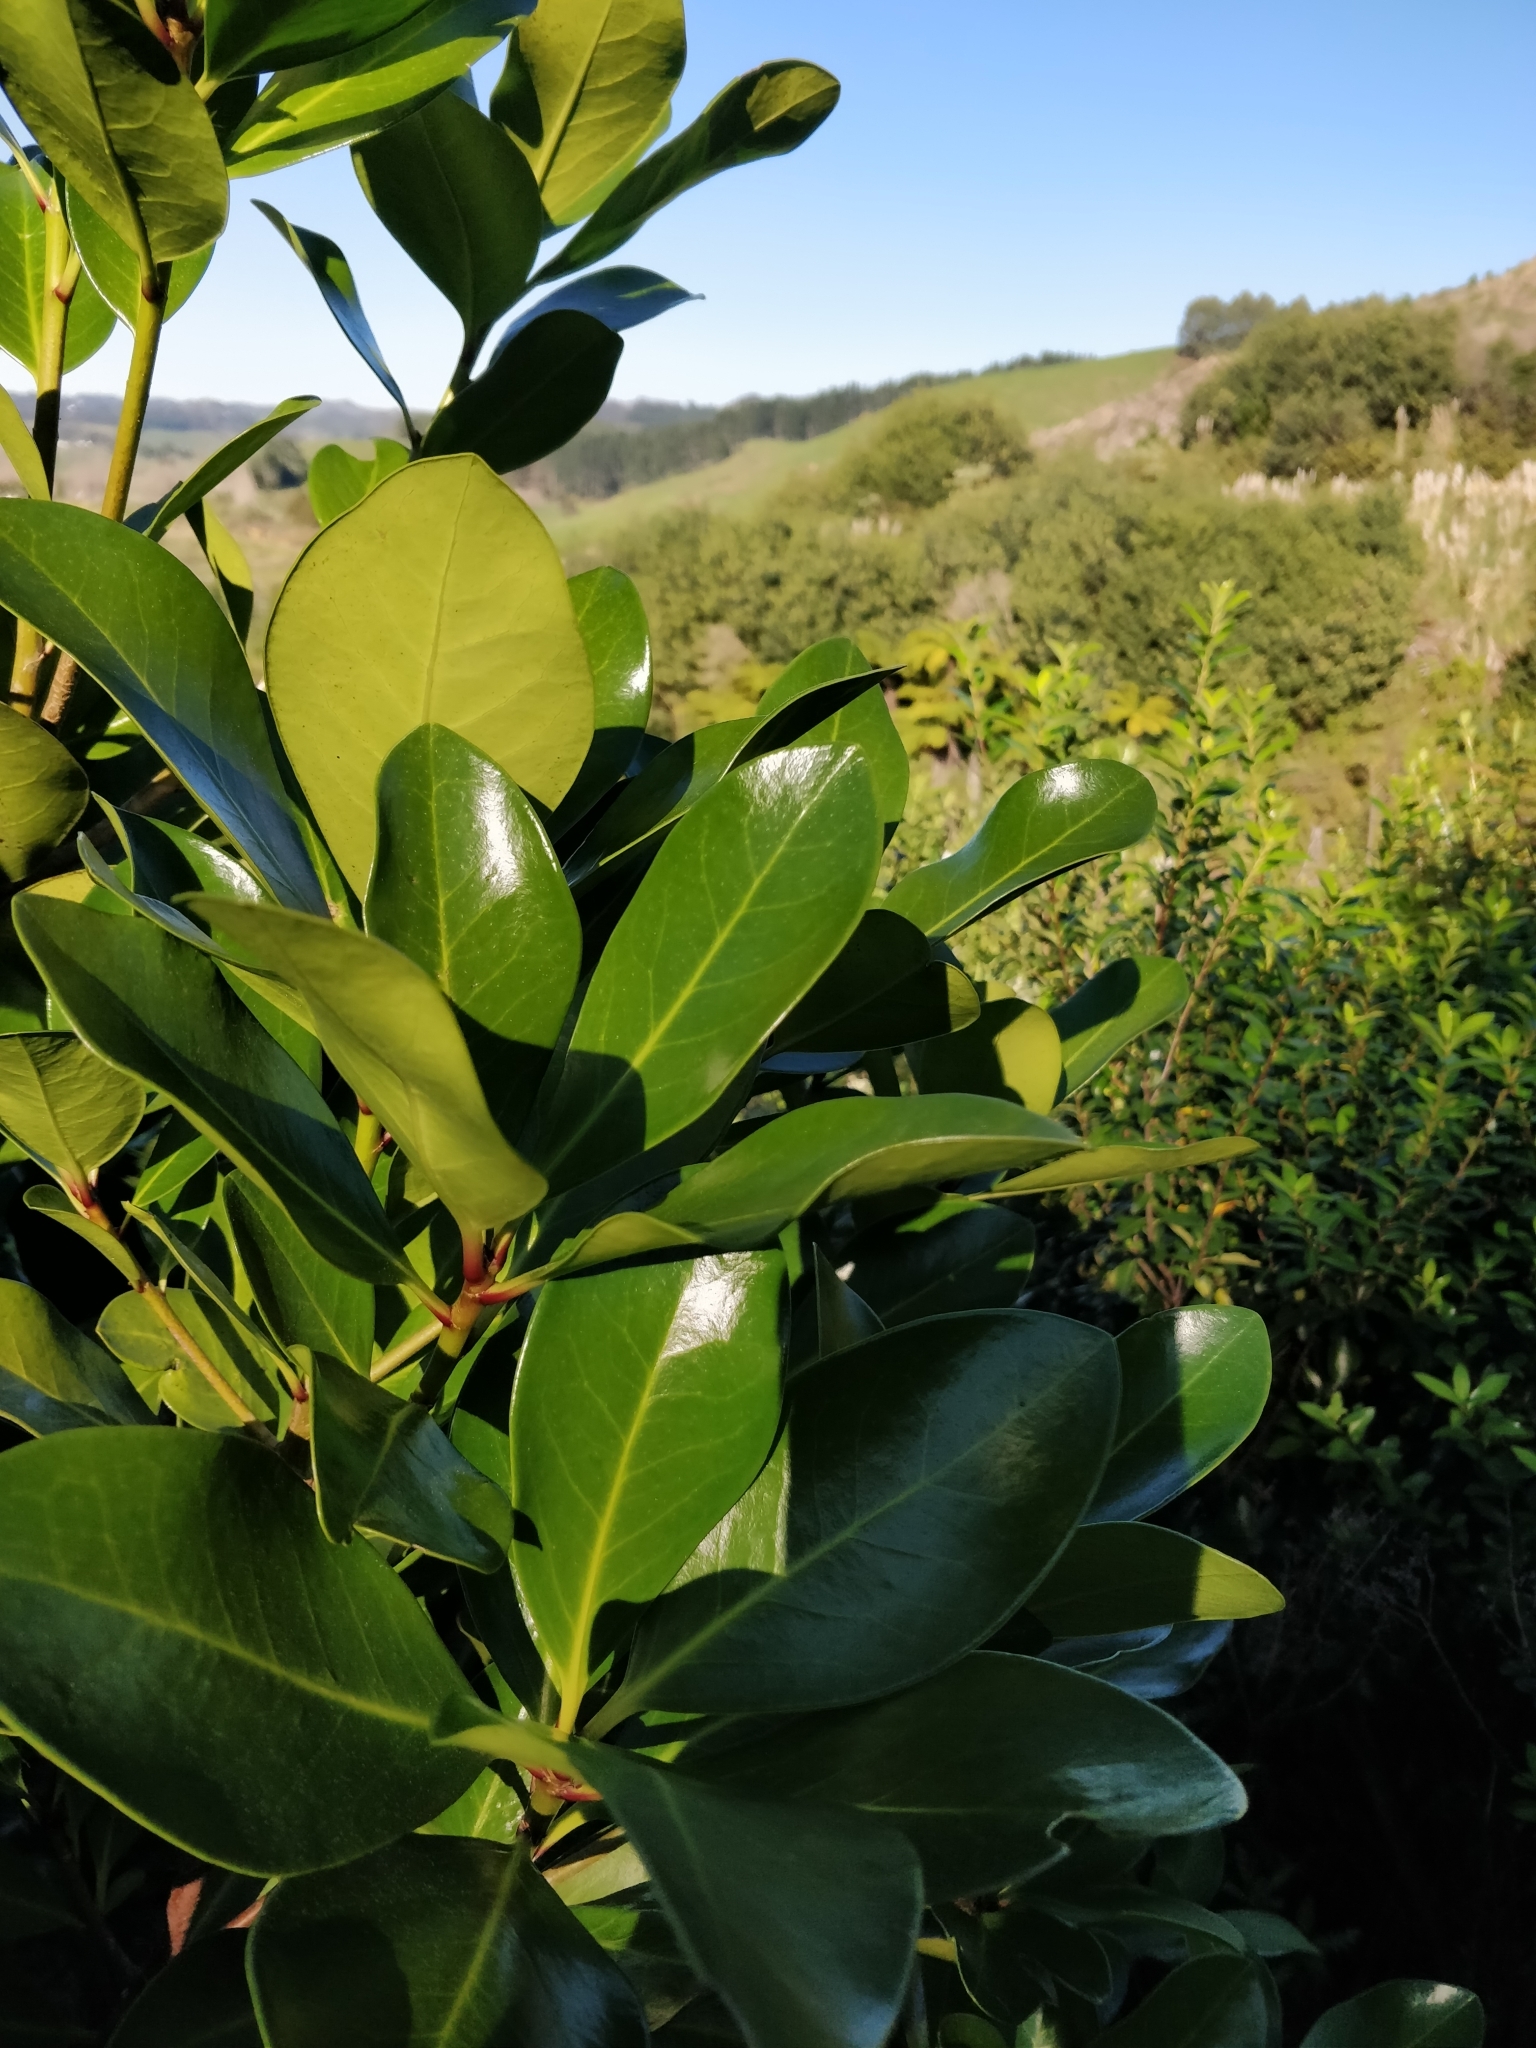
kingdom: Plantae
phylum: Tracheophyta
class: Magnoliopsida
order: Cucurbitales
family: Corynocarpaceae
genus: Corynocarpus
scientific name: Corynocarpus laevigatus
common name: New zealand laurel
